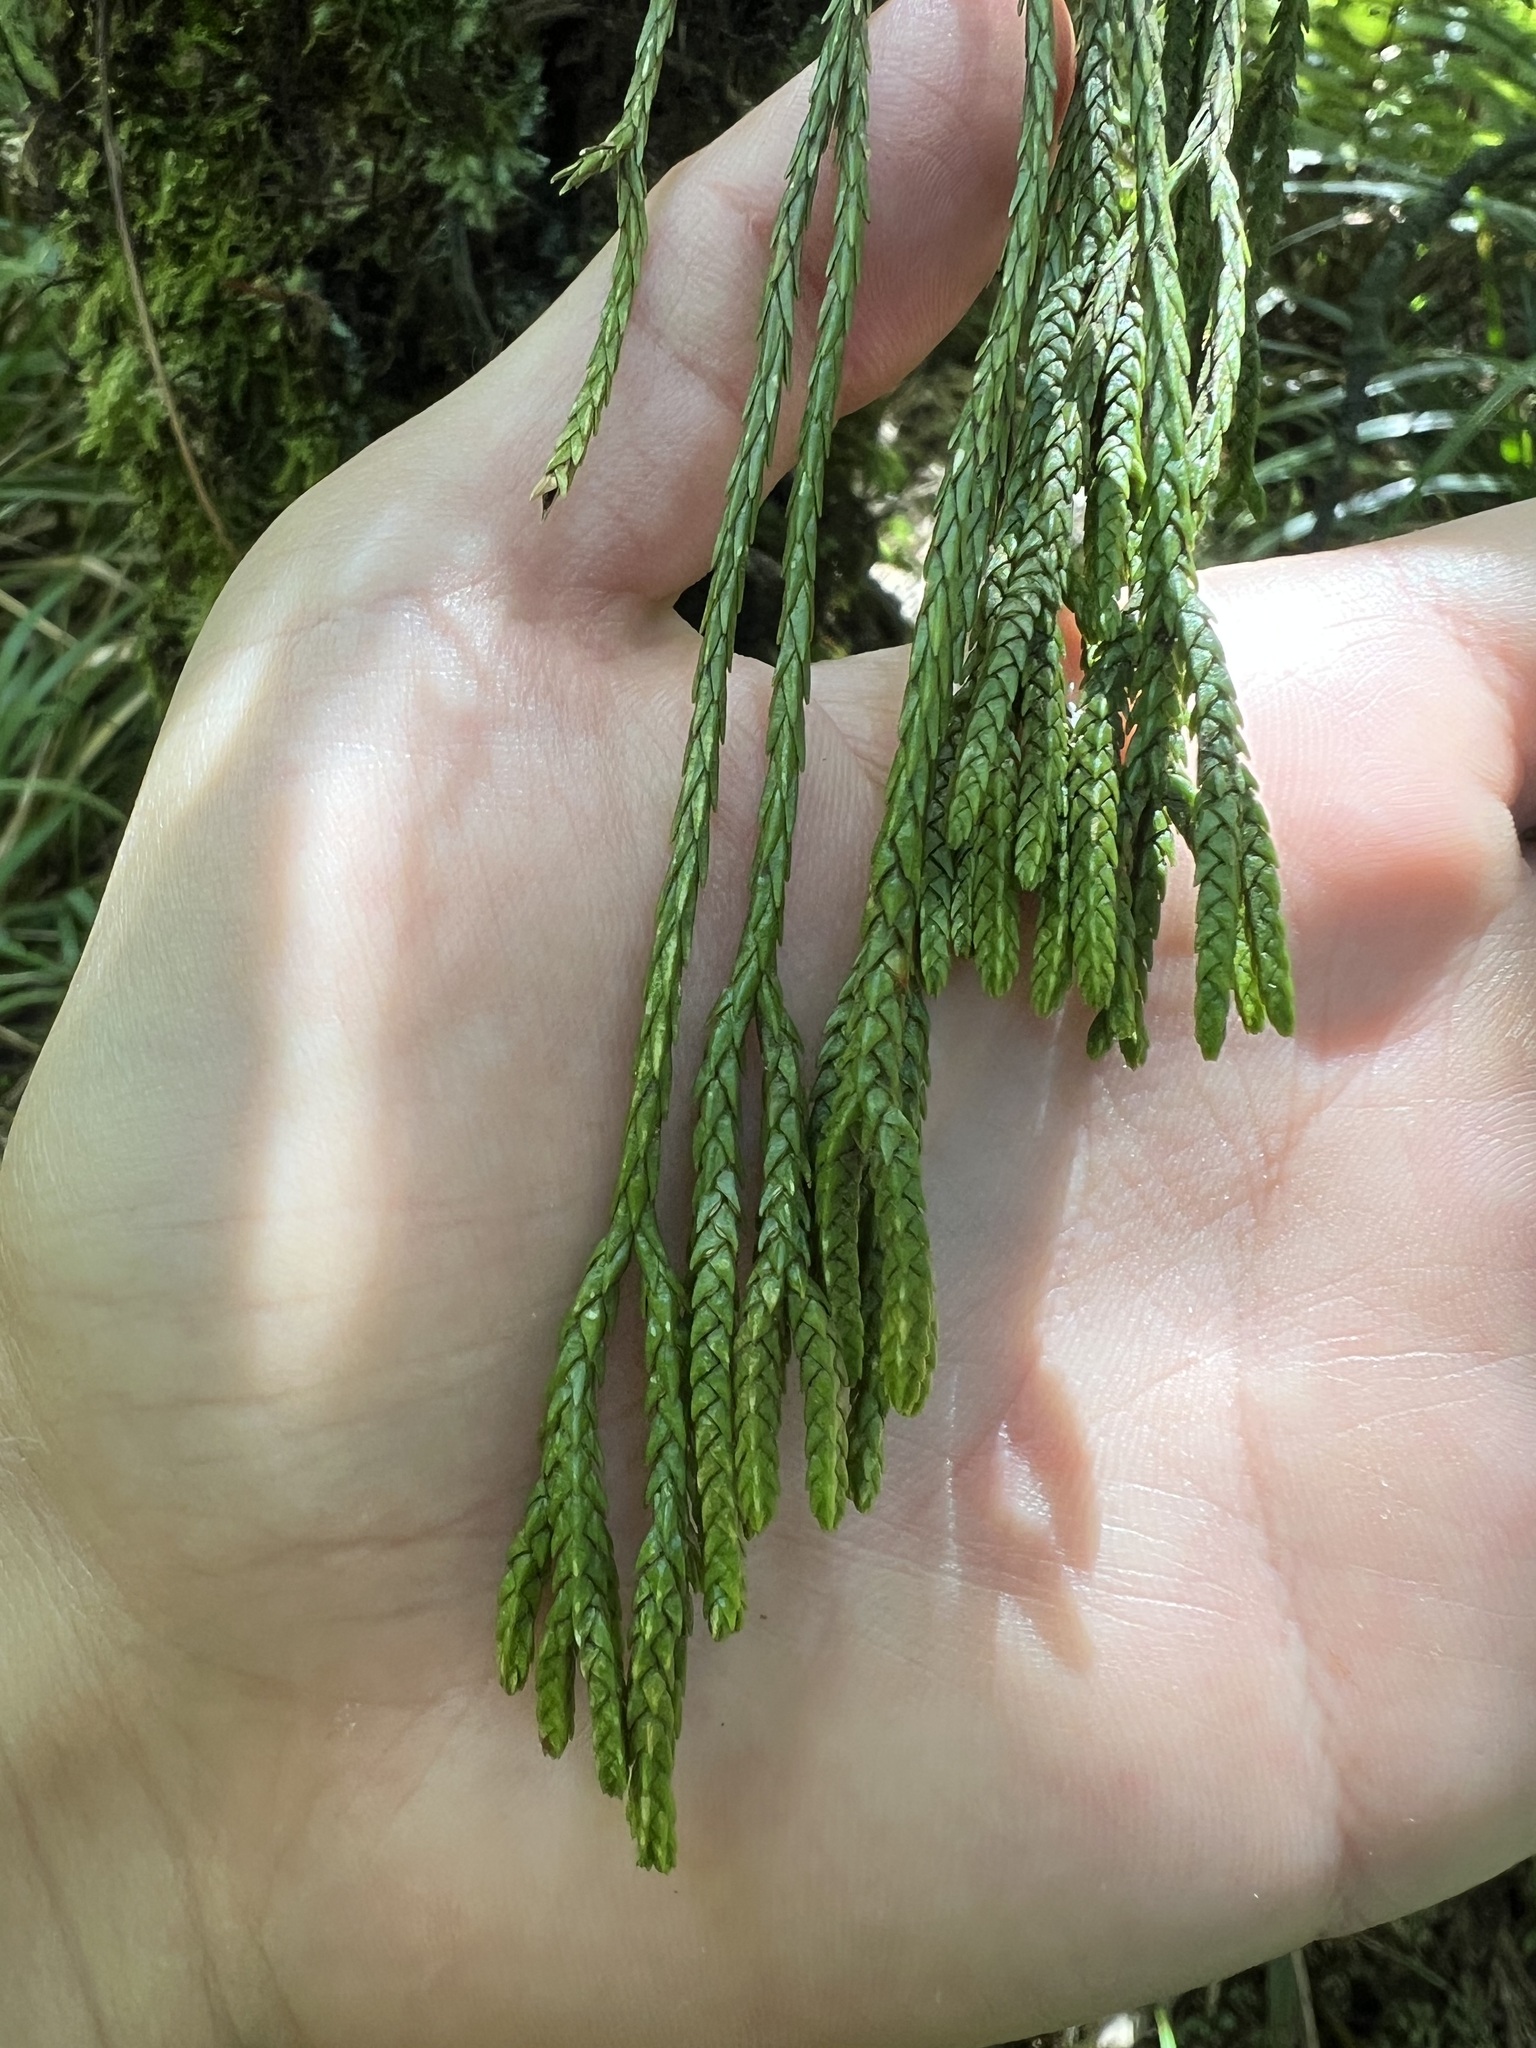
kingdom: Plantae
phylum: Tracheophyta
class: Lycopodiopsida
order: Lycopodiales
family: Lycopodiaceae
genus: Phlegmariurus
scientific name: Phlegmariurus billardierei
